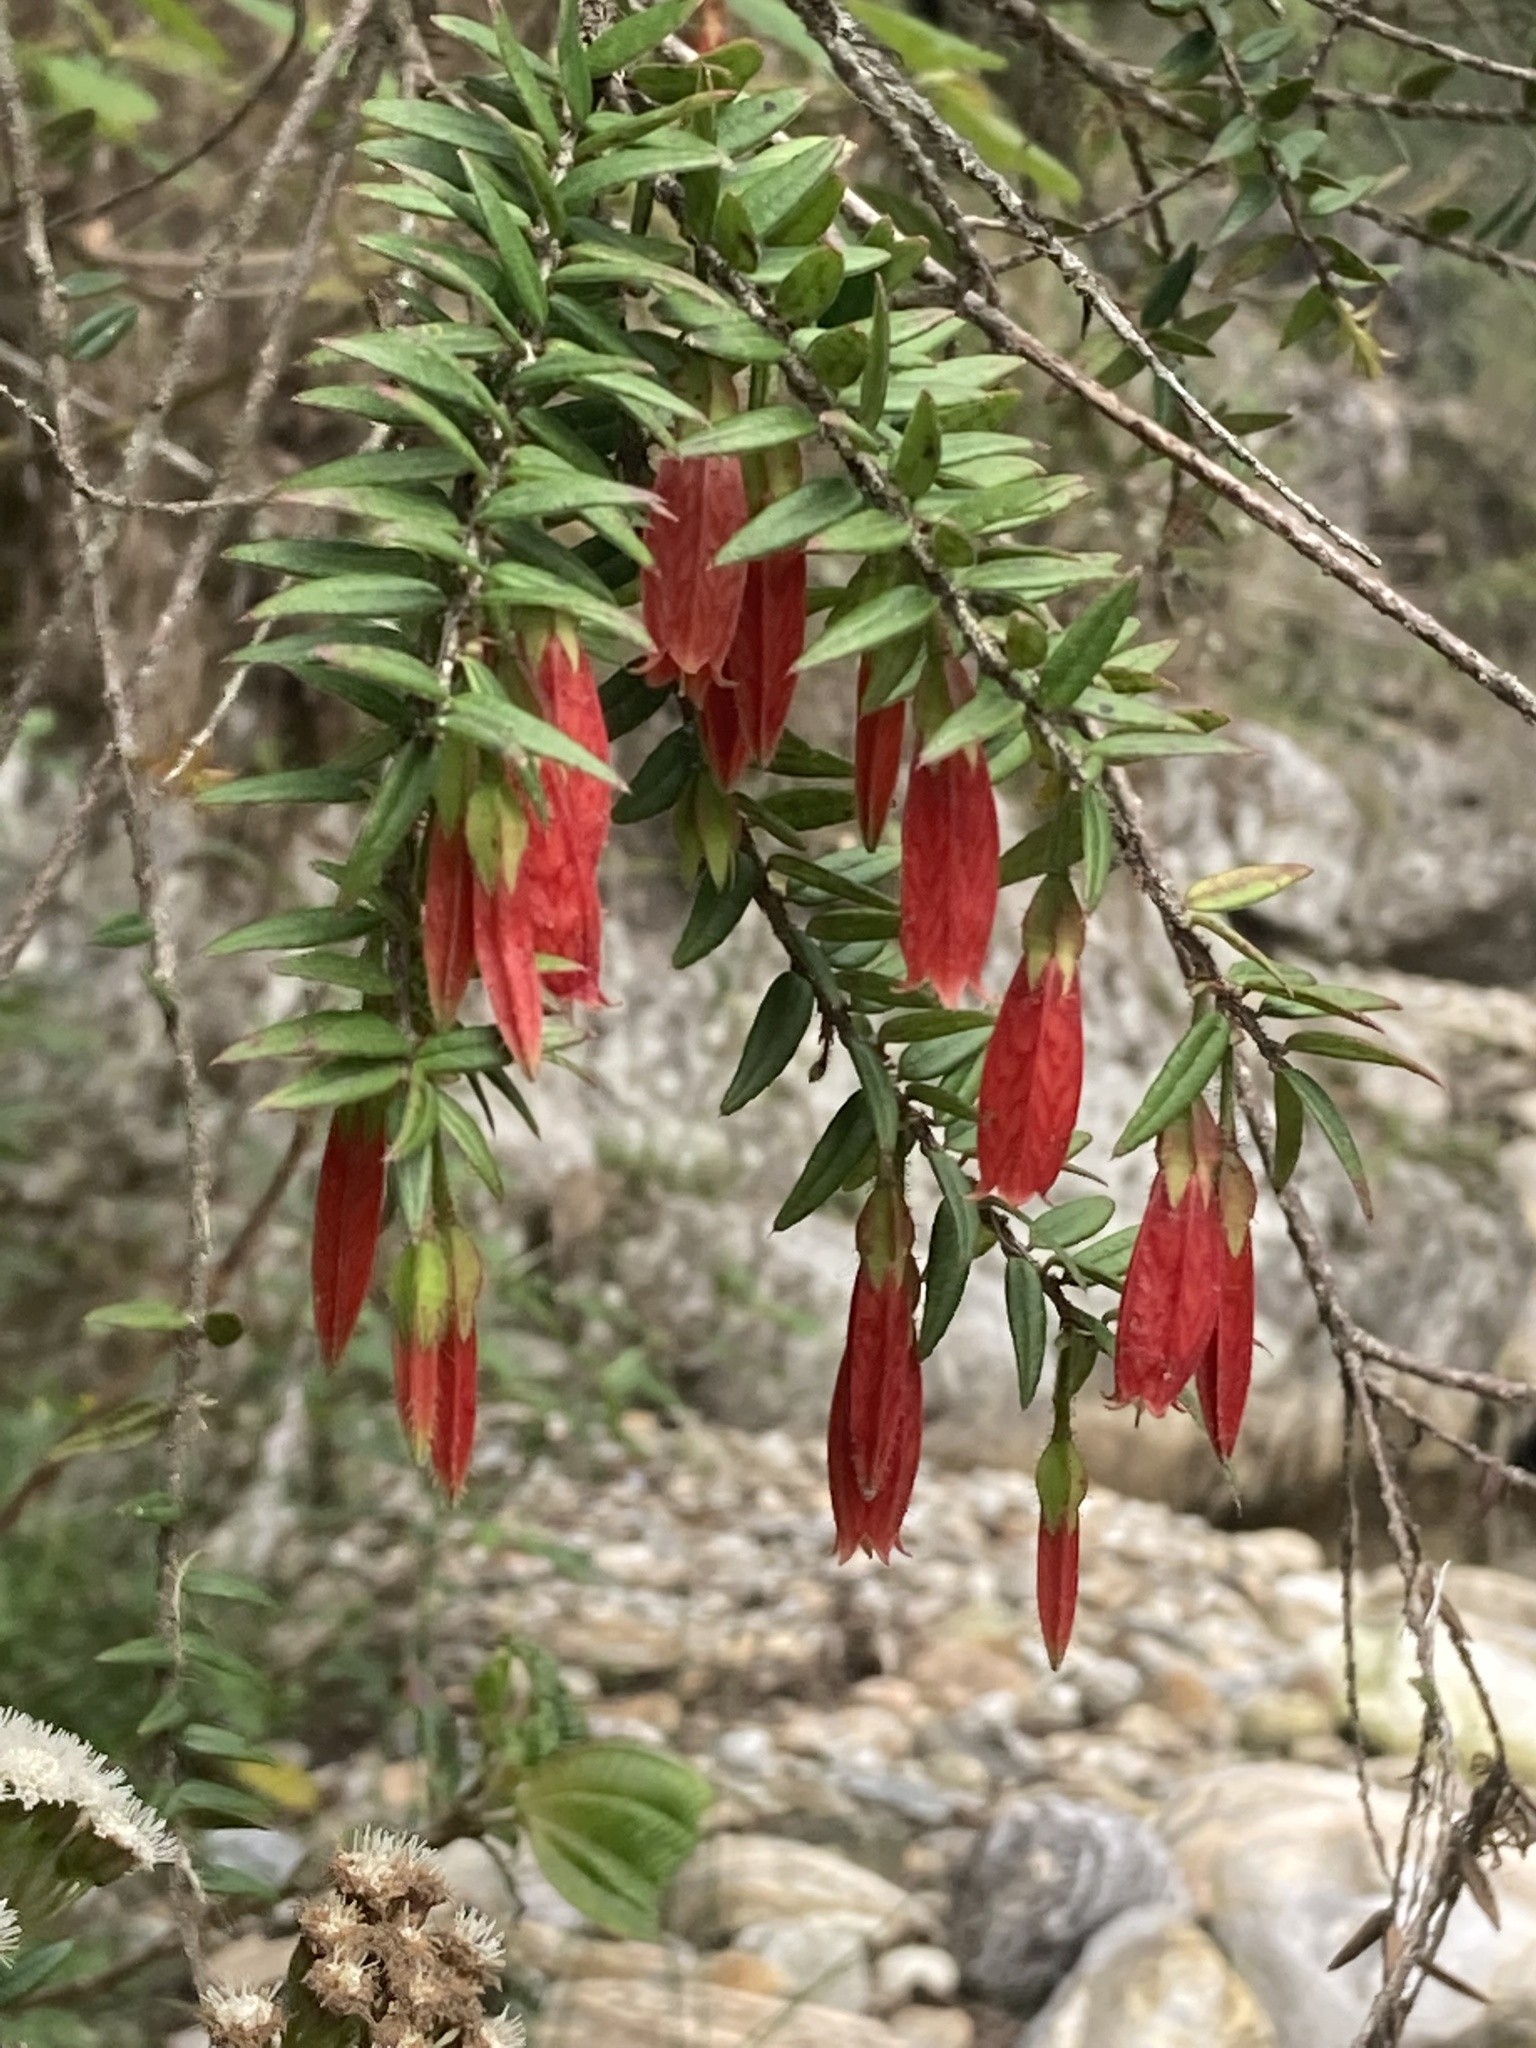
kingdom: Plantae
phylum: Tracheophyta
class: Magnoliopsida
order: Ericales
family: Ericaceae
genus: Agapetes
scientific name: Agapetes serpens
